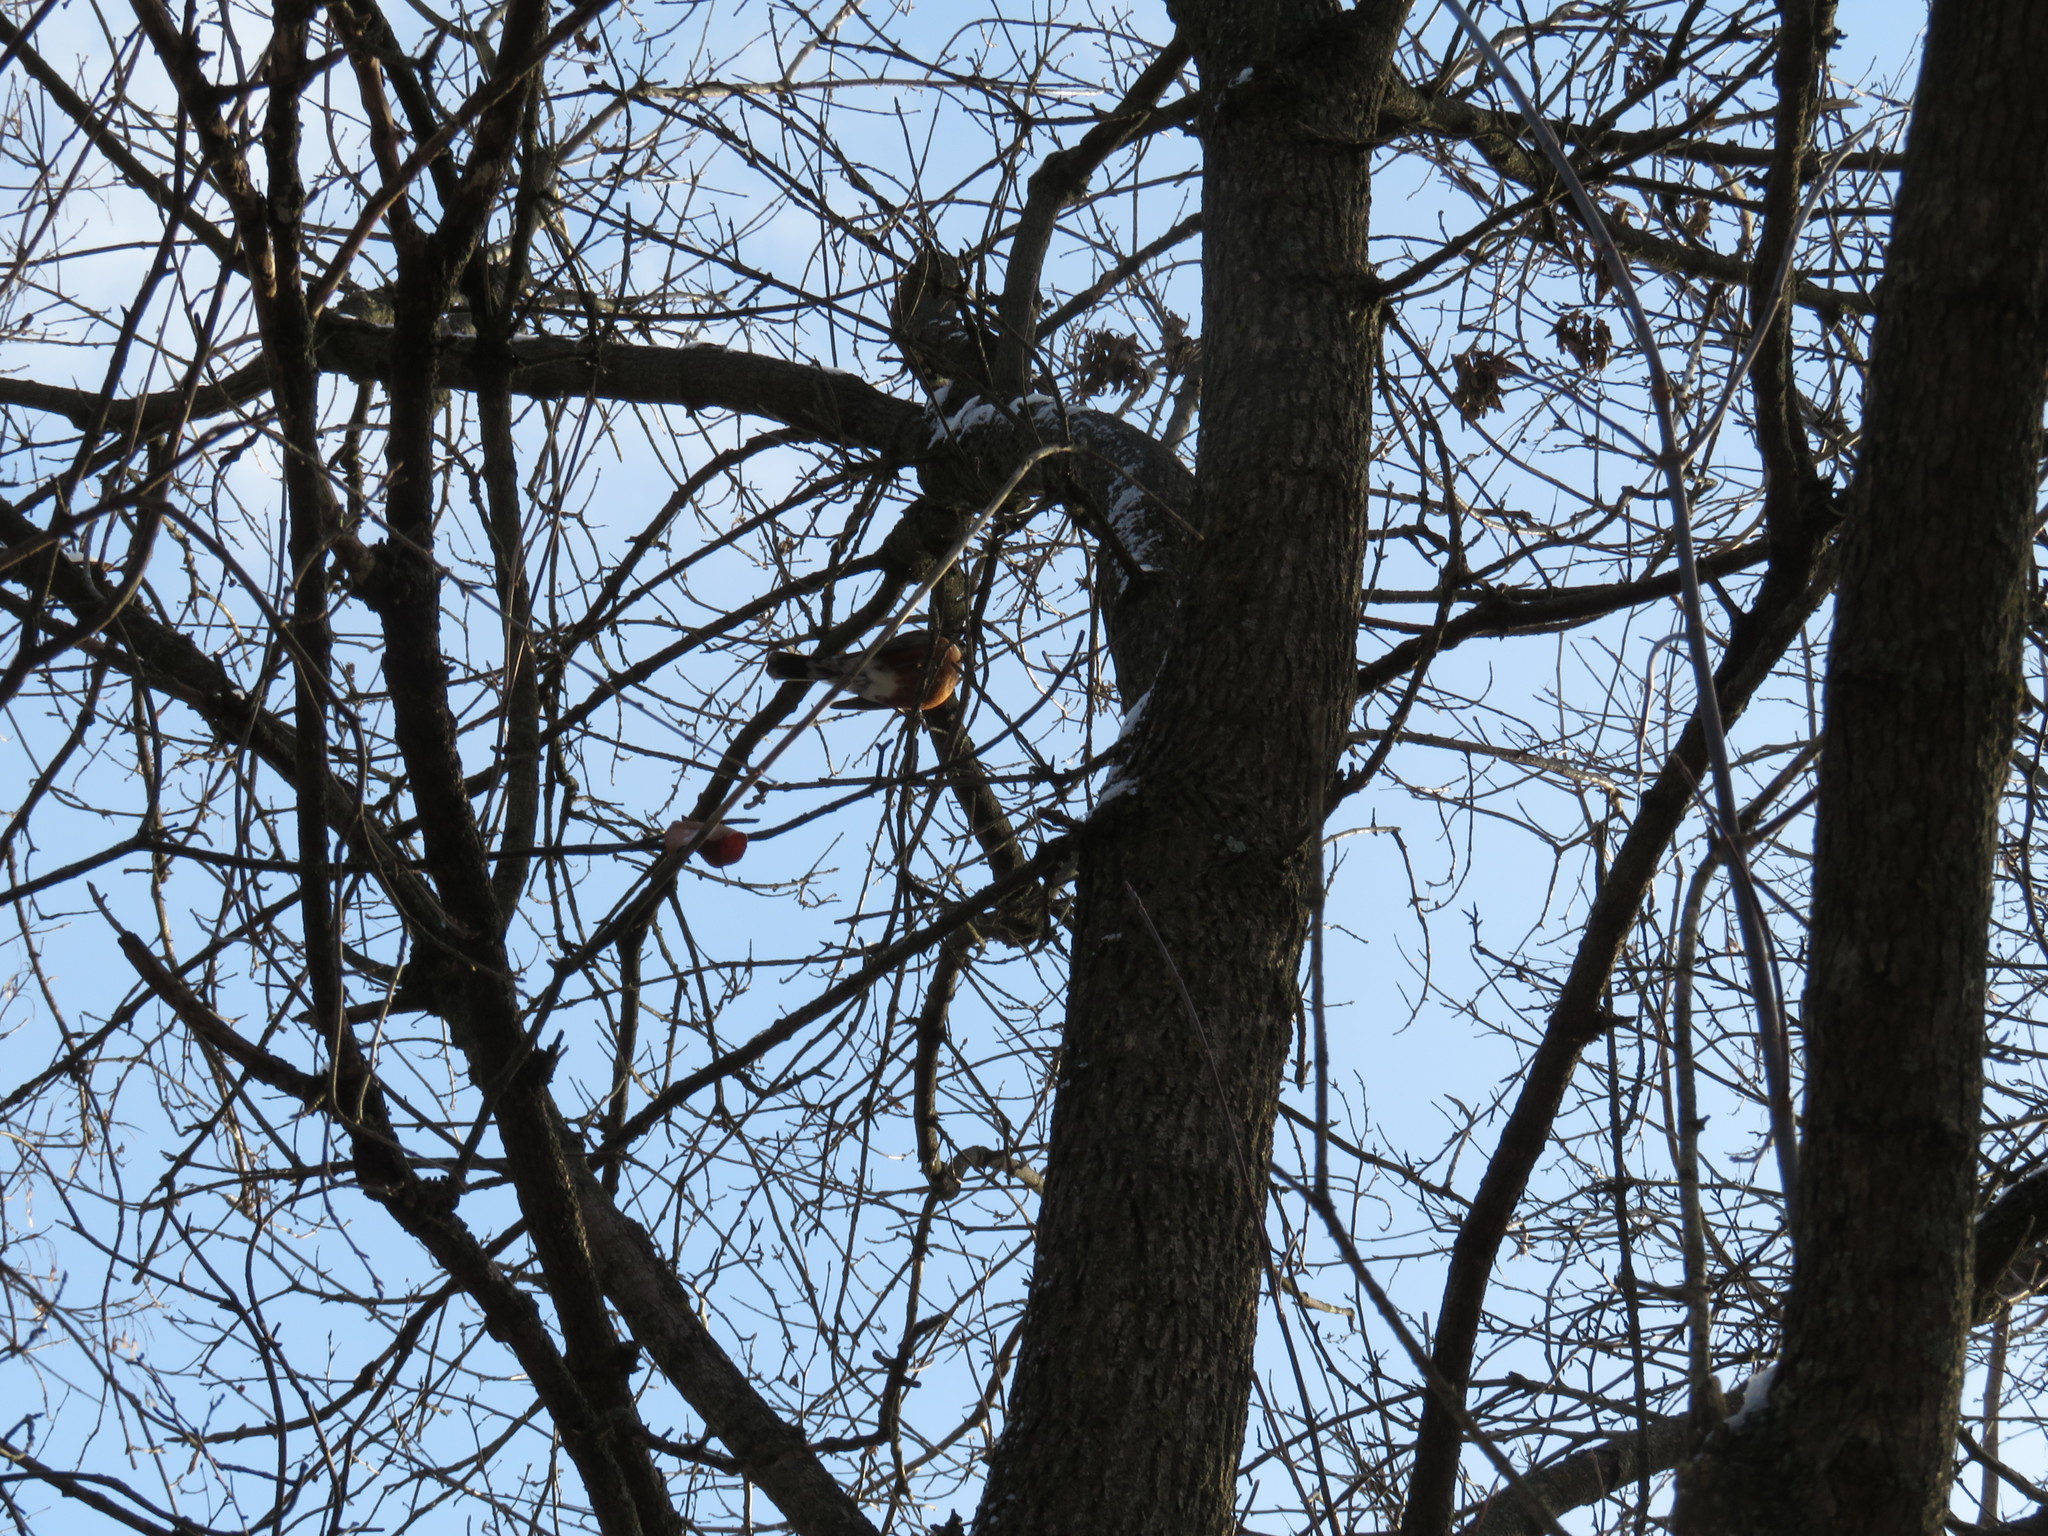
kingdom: Animalia
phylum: Chordata
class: Aves
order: Passeriformes
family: Turdidae
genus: Turdus
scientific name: Turdus migratorius
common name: American robin
